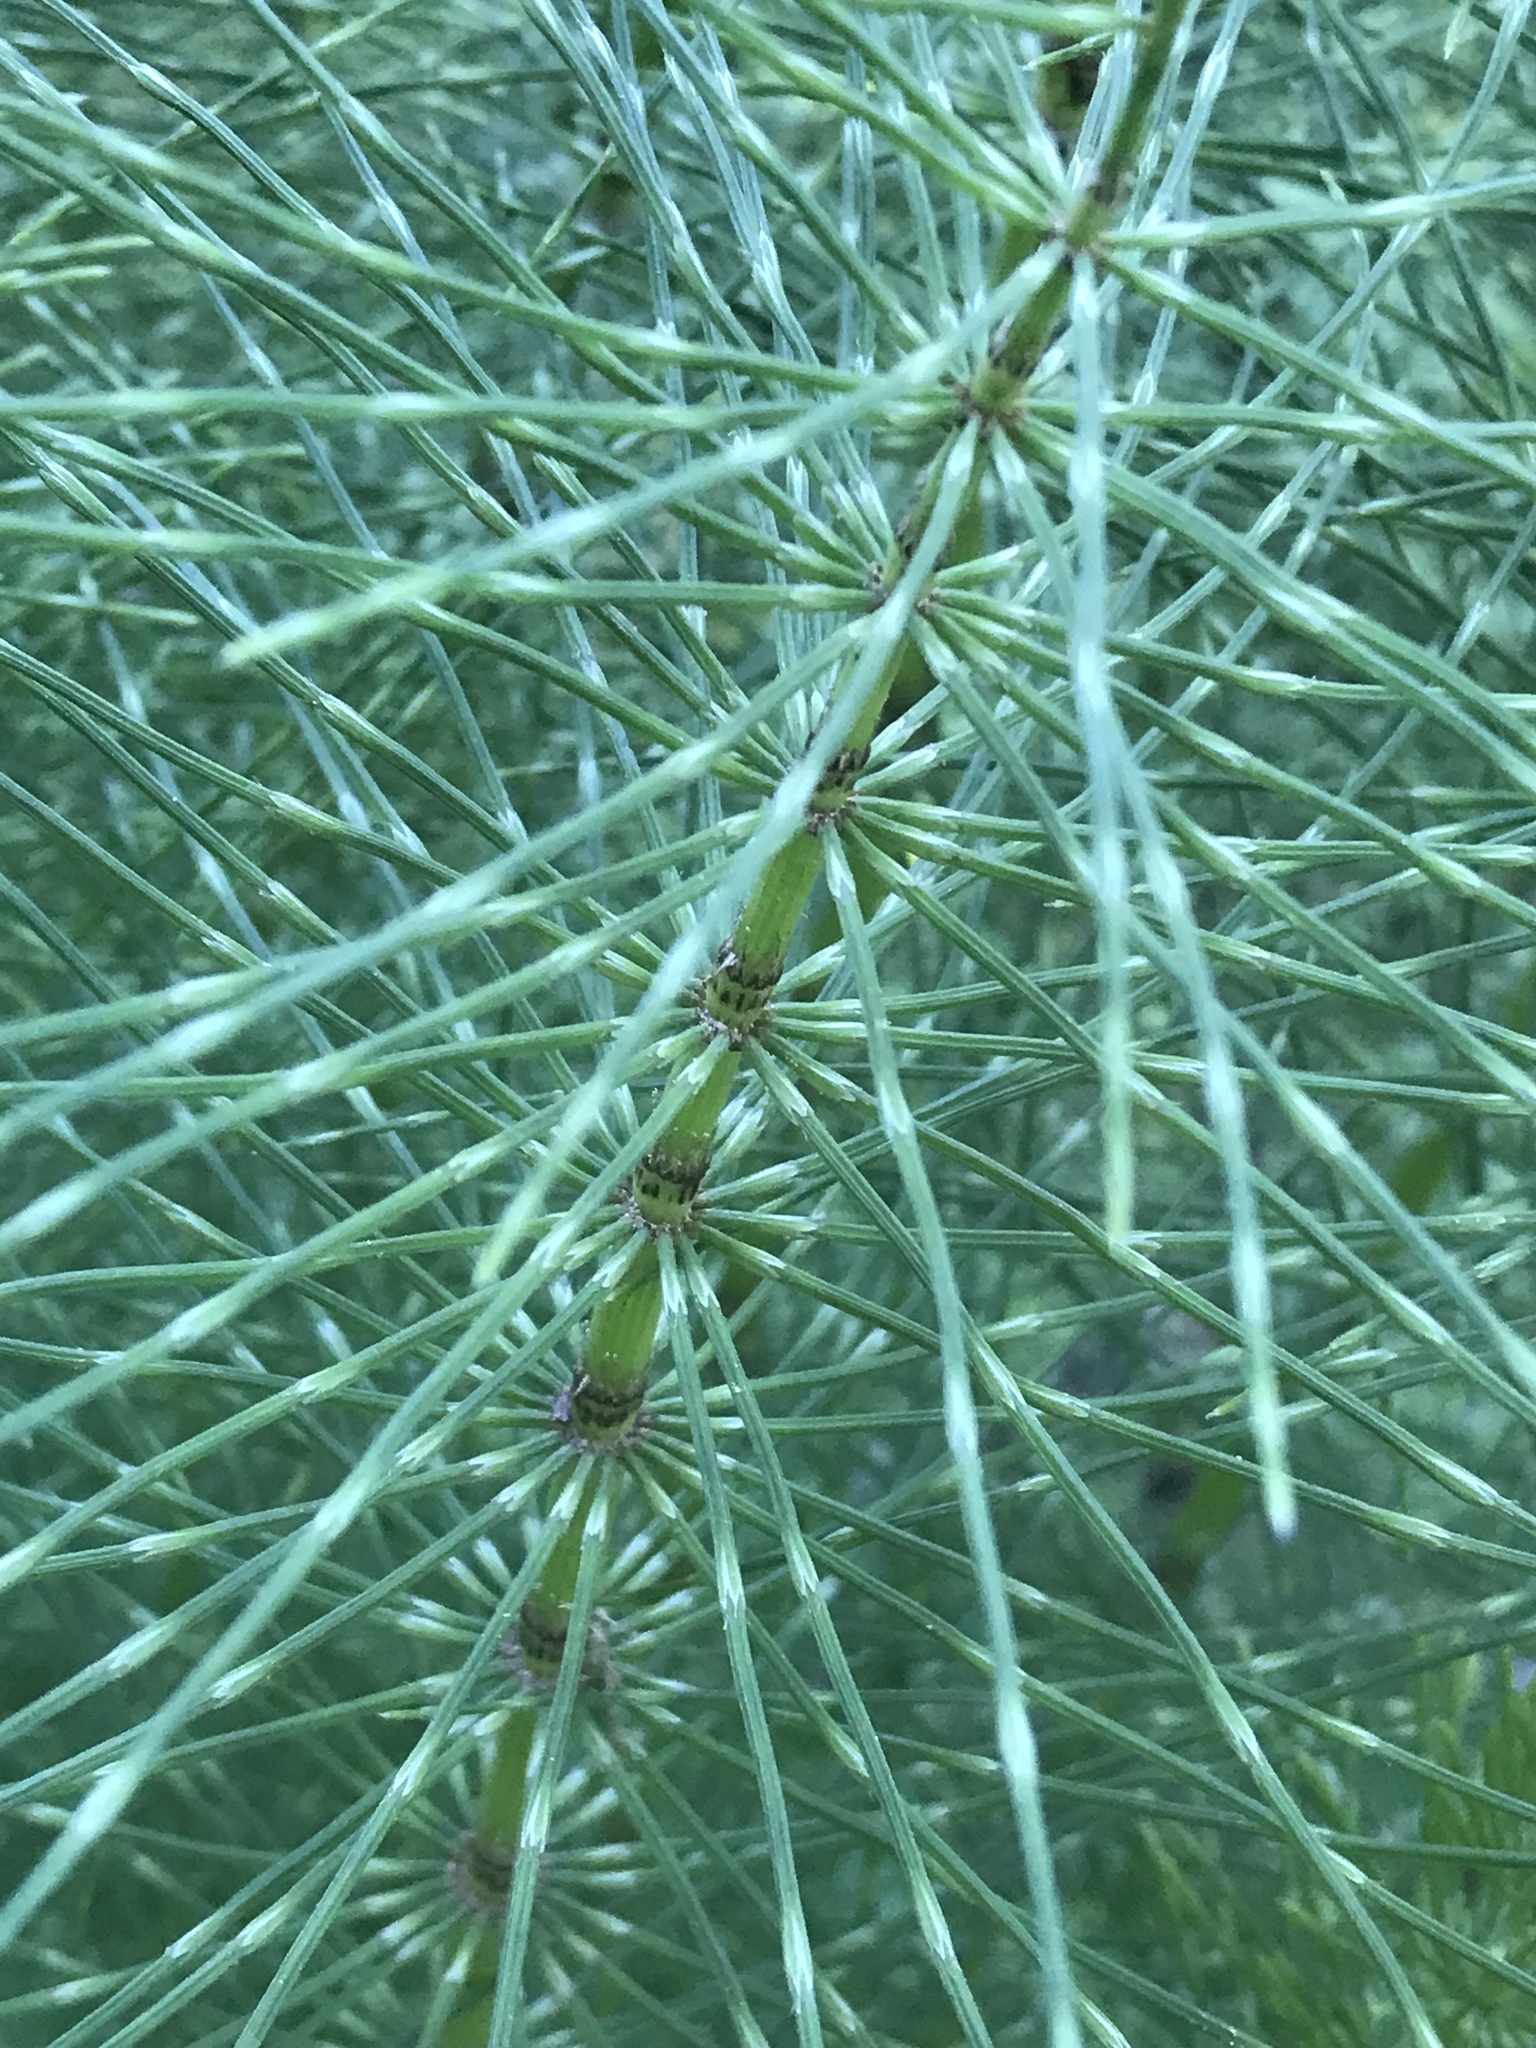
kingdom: Plantae
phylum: Tracheophyta
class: Polypodiopsida
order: Equisetales
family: Equisetaceae
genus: Equisetum
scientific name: Equisetum telmateia
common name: Great horsetail
